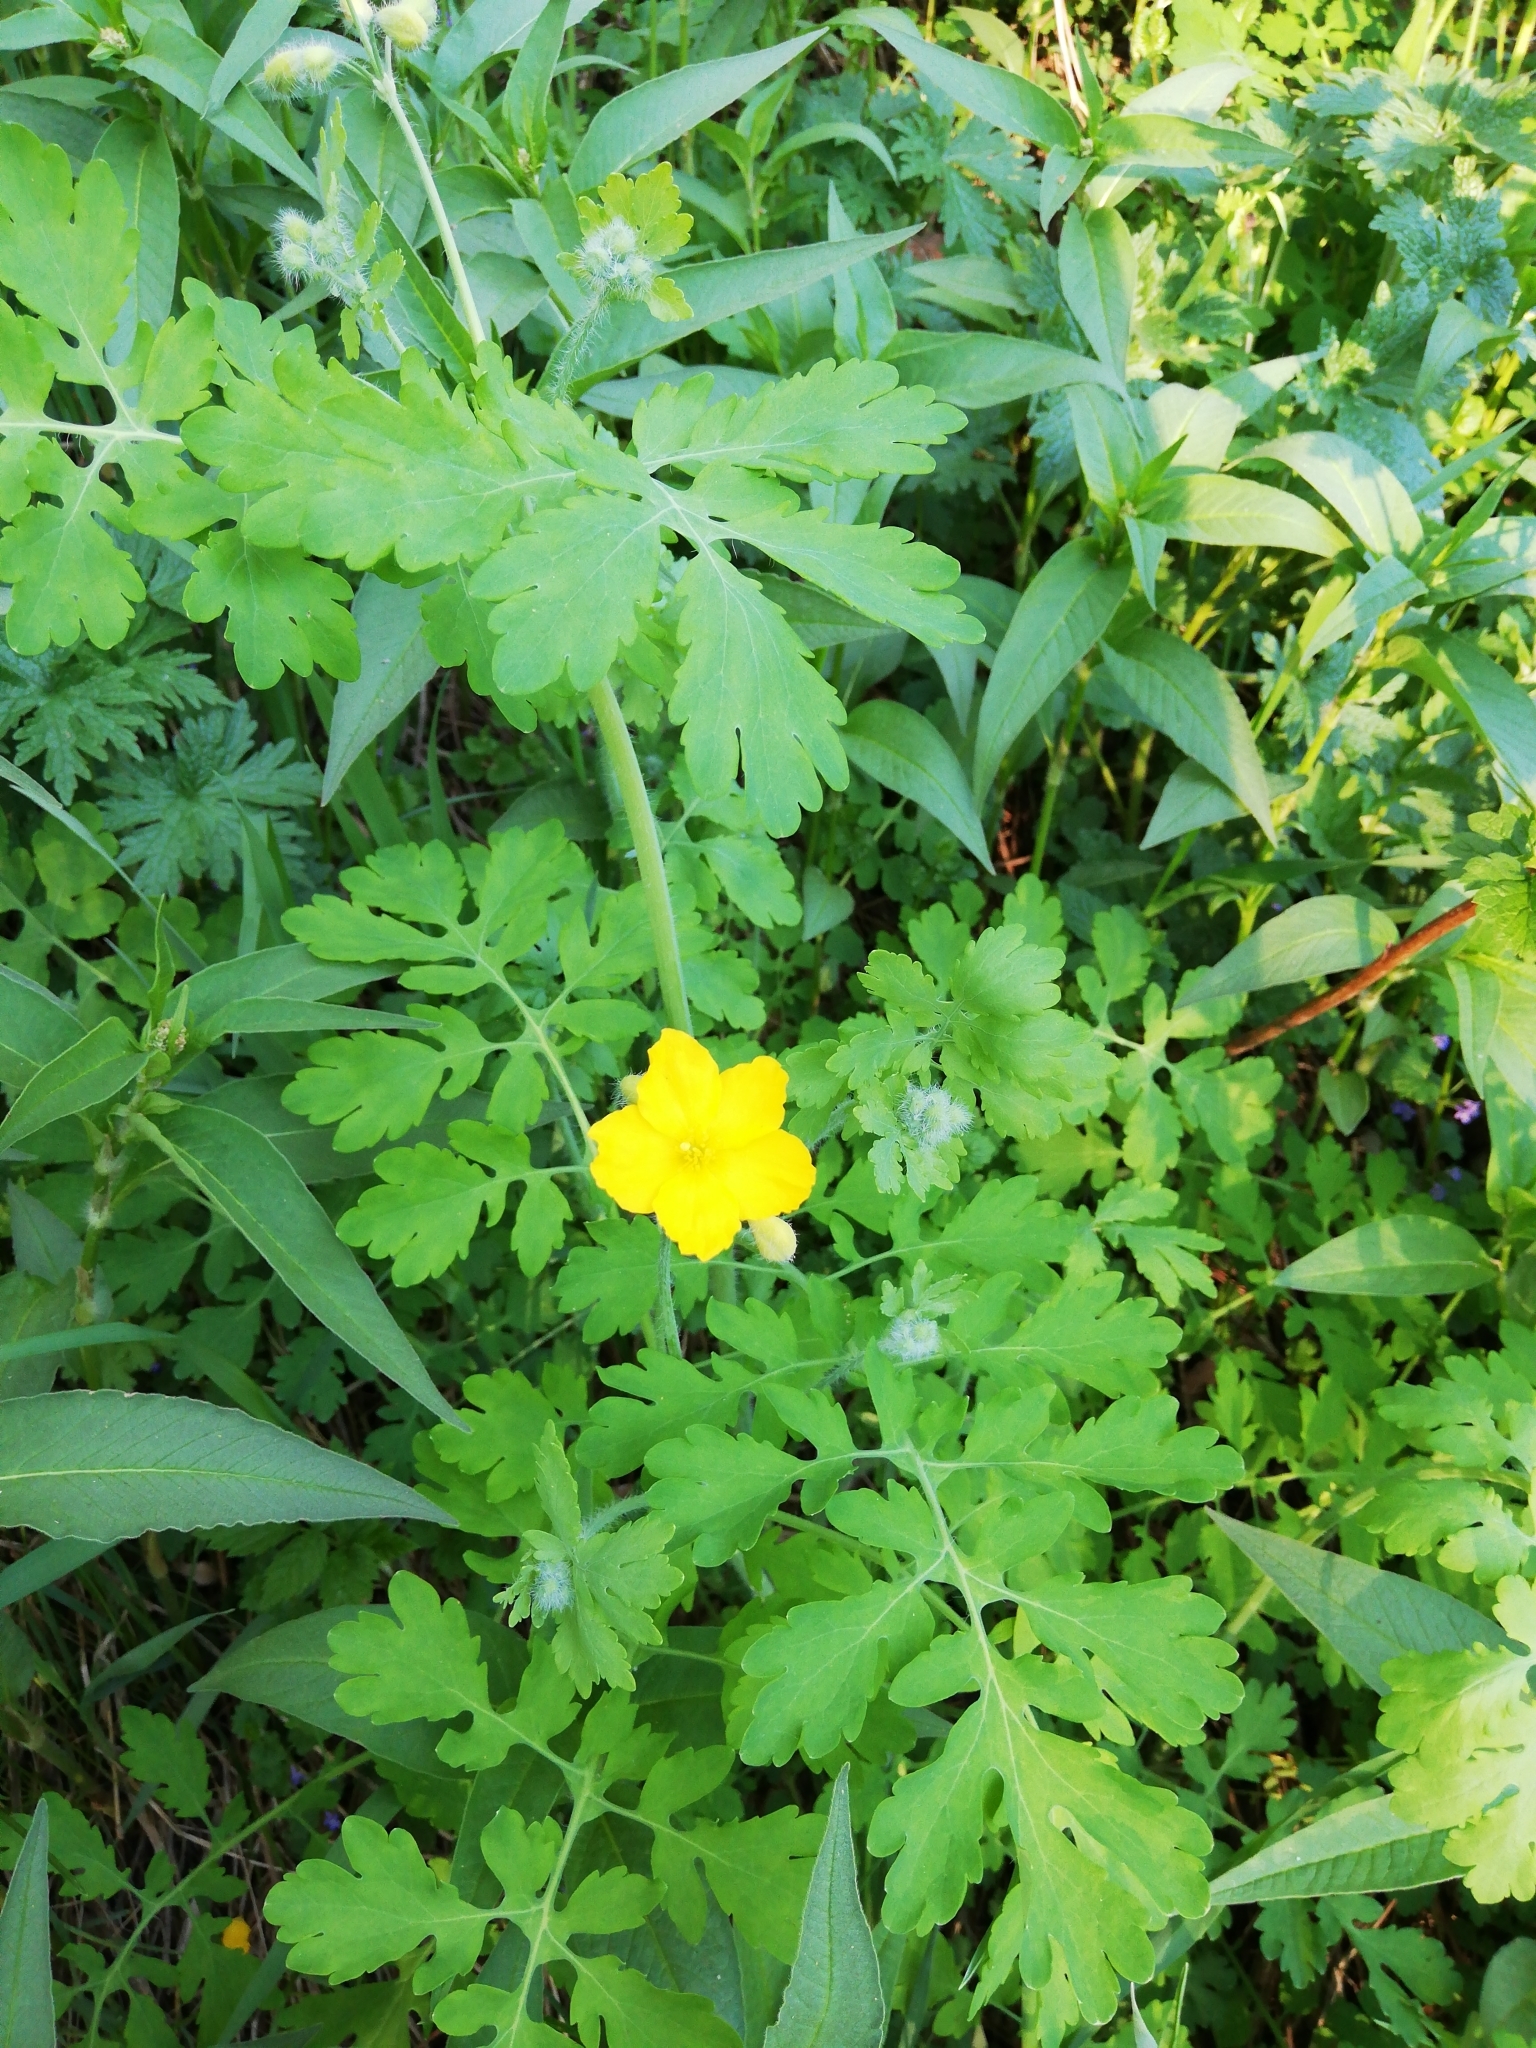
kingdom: Plantae
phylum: Tracheophyta
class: Magnoliopsida
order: Ranunculales
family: Papaveraceae
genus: Chelidonium
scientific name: Chelidonium majus
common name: Greater celandine
